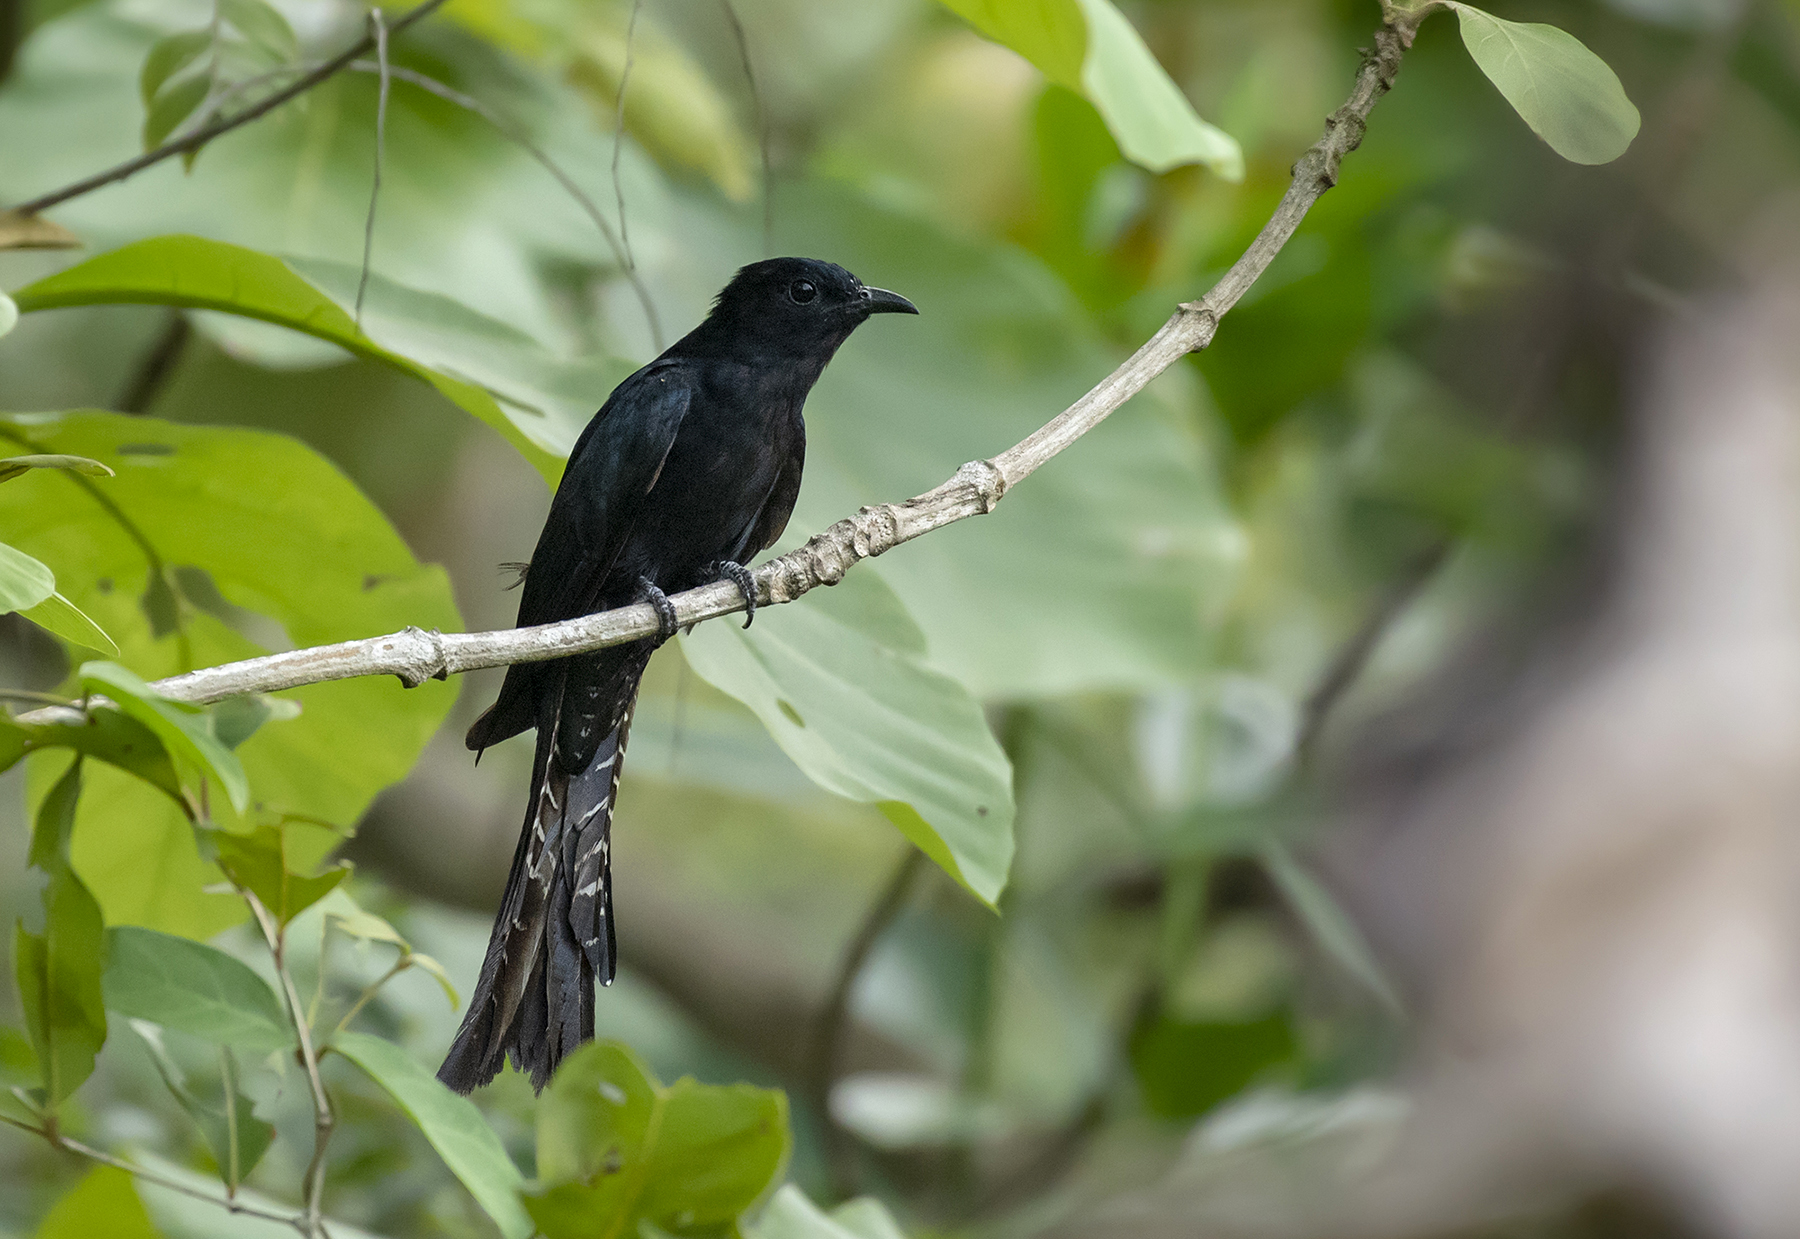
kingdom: Animalia
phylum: Chordata
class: Aves
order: Cuculiformes
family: Cuculidae
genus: Surniculus
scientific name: Surniculus lugubris
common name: Square-tailed drongo-cuckoo
